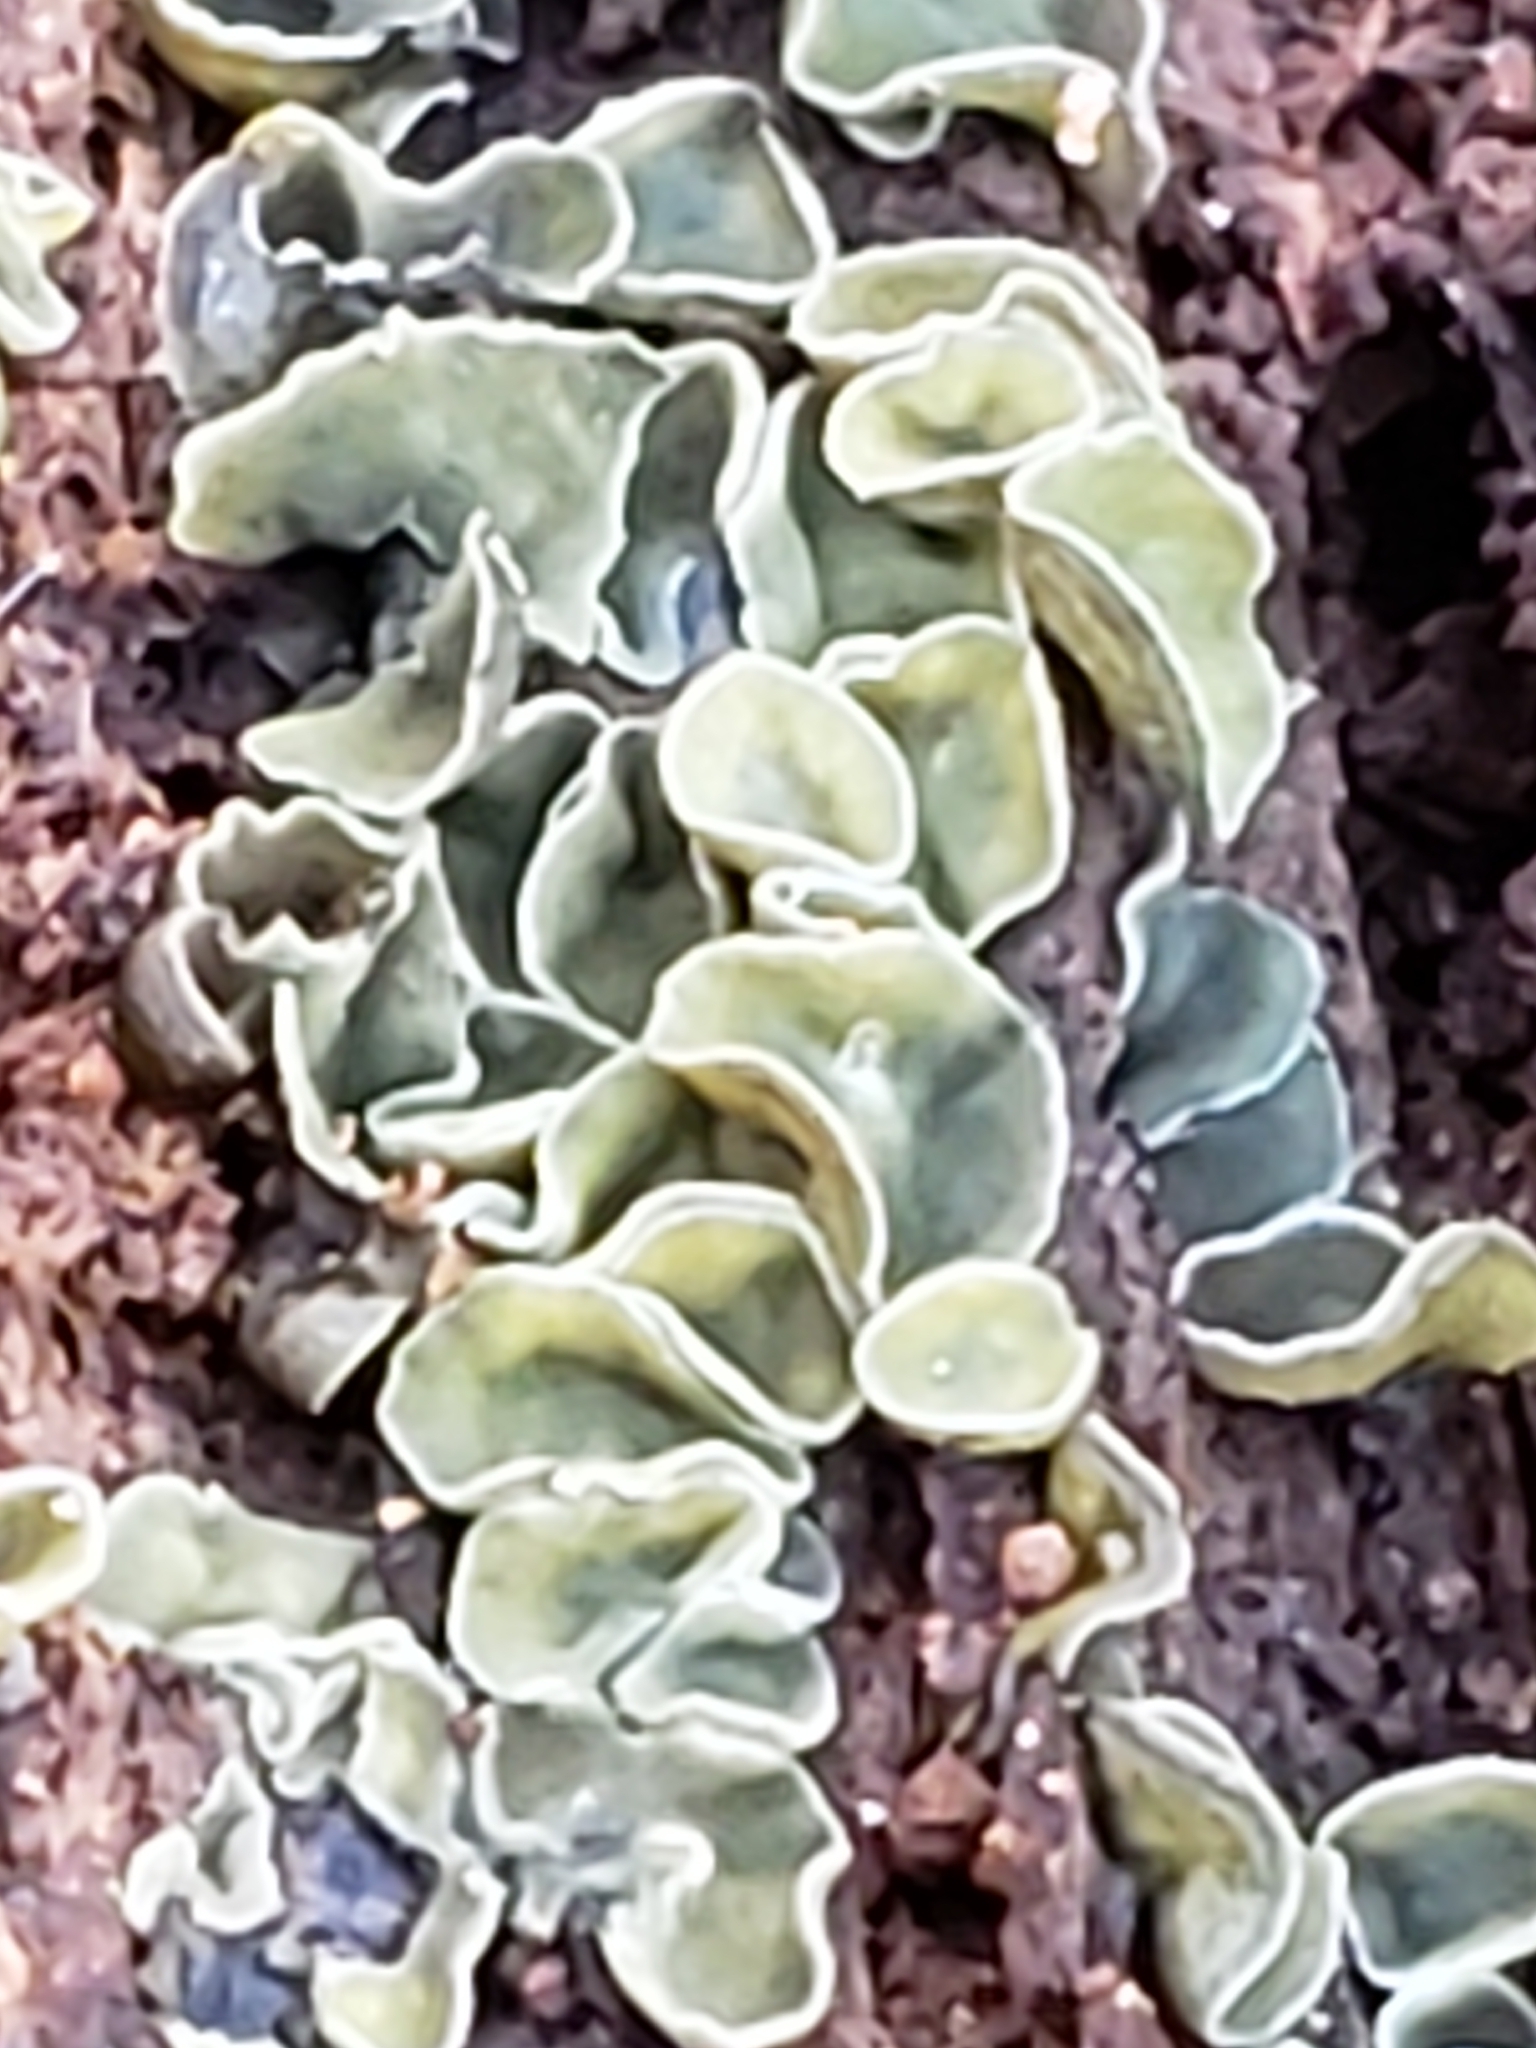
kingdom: Fungi
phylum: Ascomycota
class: Leotiomycetes
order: Helotiales
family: Chlorospleniaceae
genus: Chlorosplenium
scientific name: Chlorosplenium chlora
